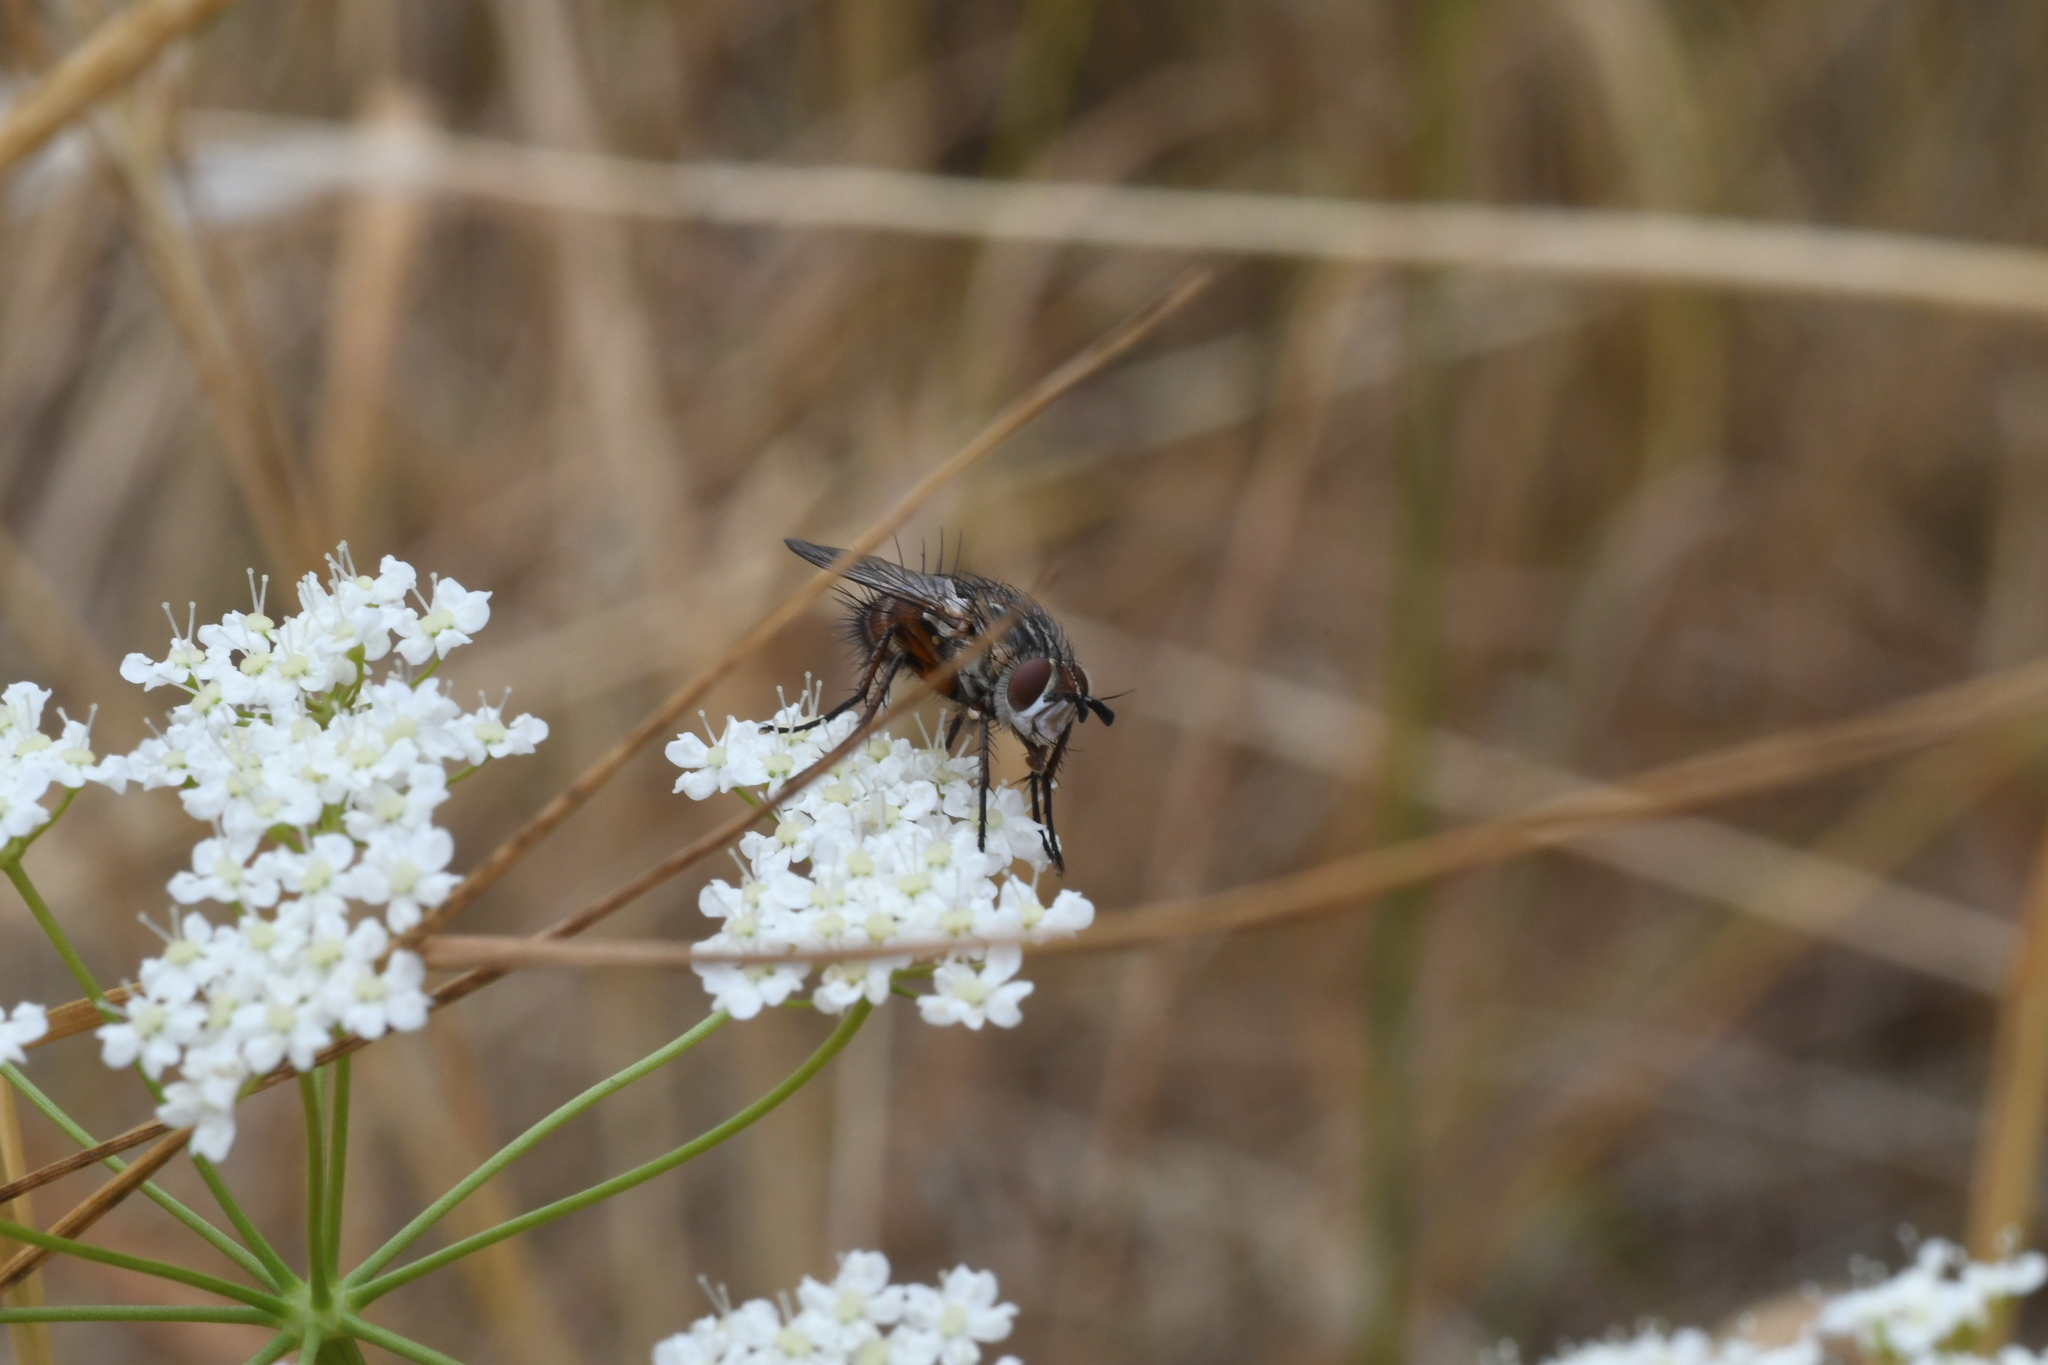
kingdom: Animalia
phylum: Arthropoda
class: Insecta
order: Diptera
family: Tachinidae
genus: Linnaemya
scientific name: Linnaemya vulpina
